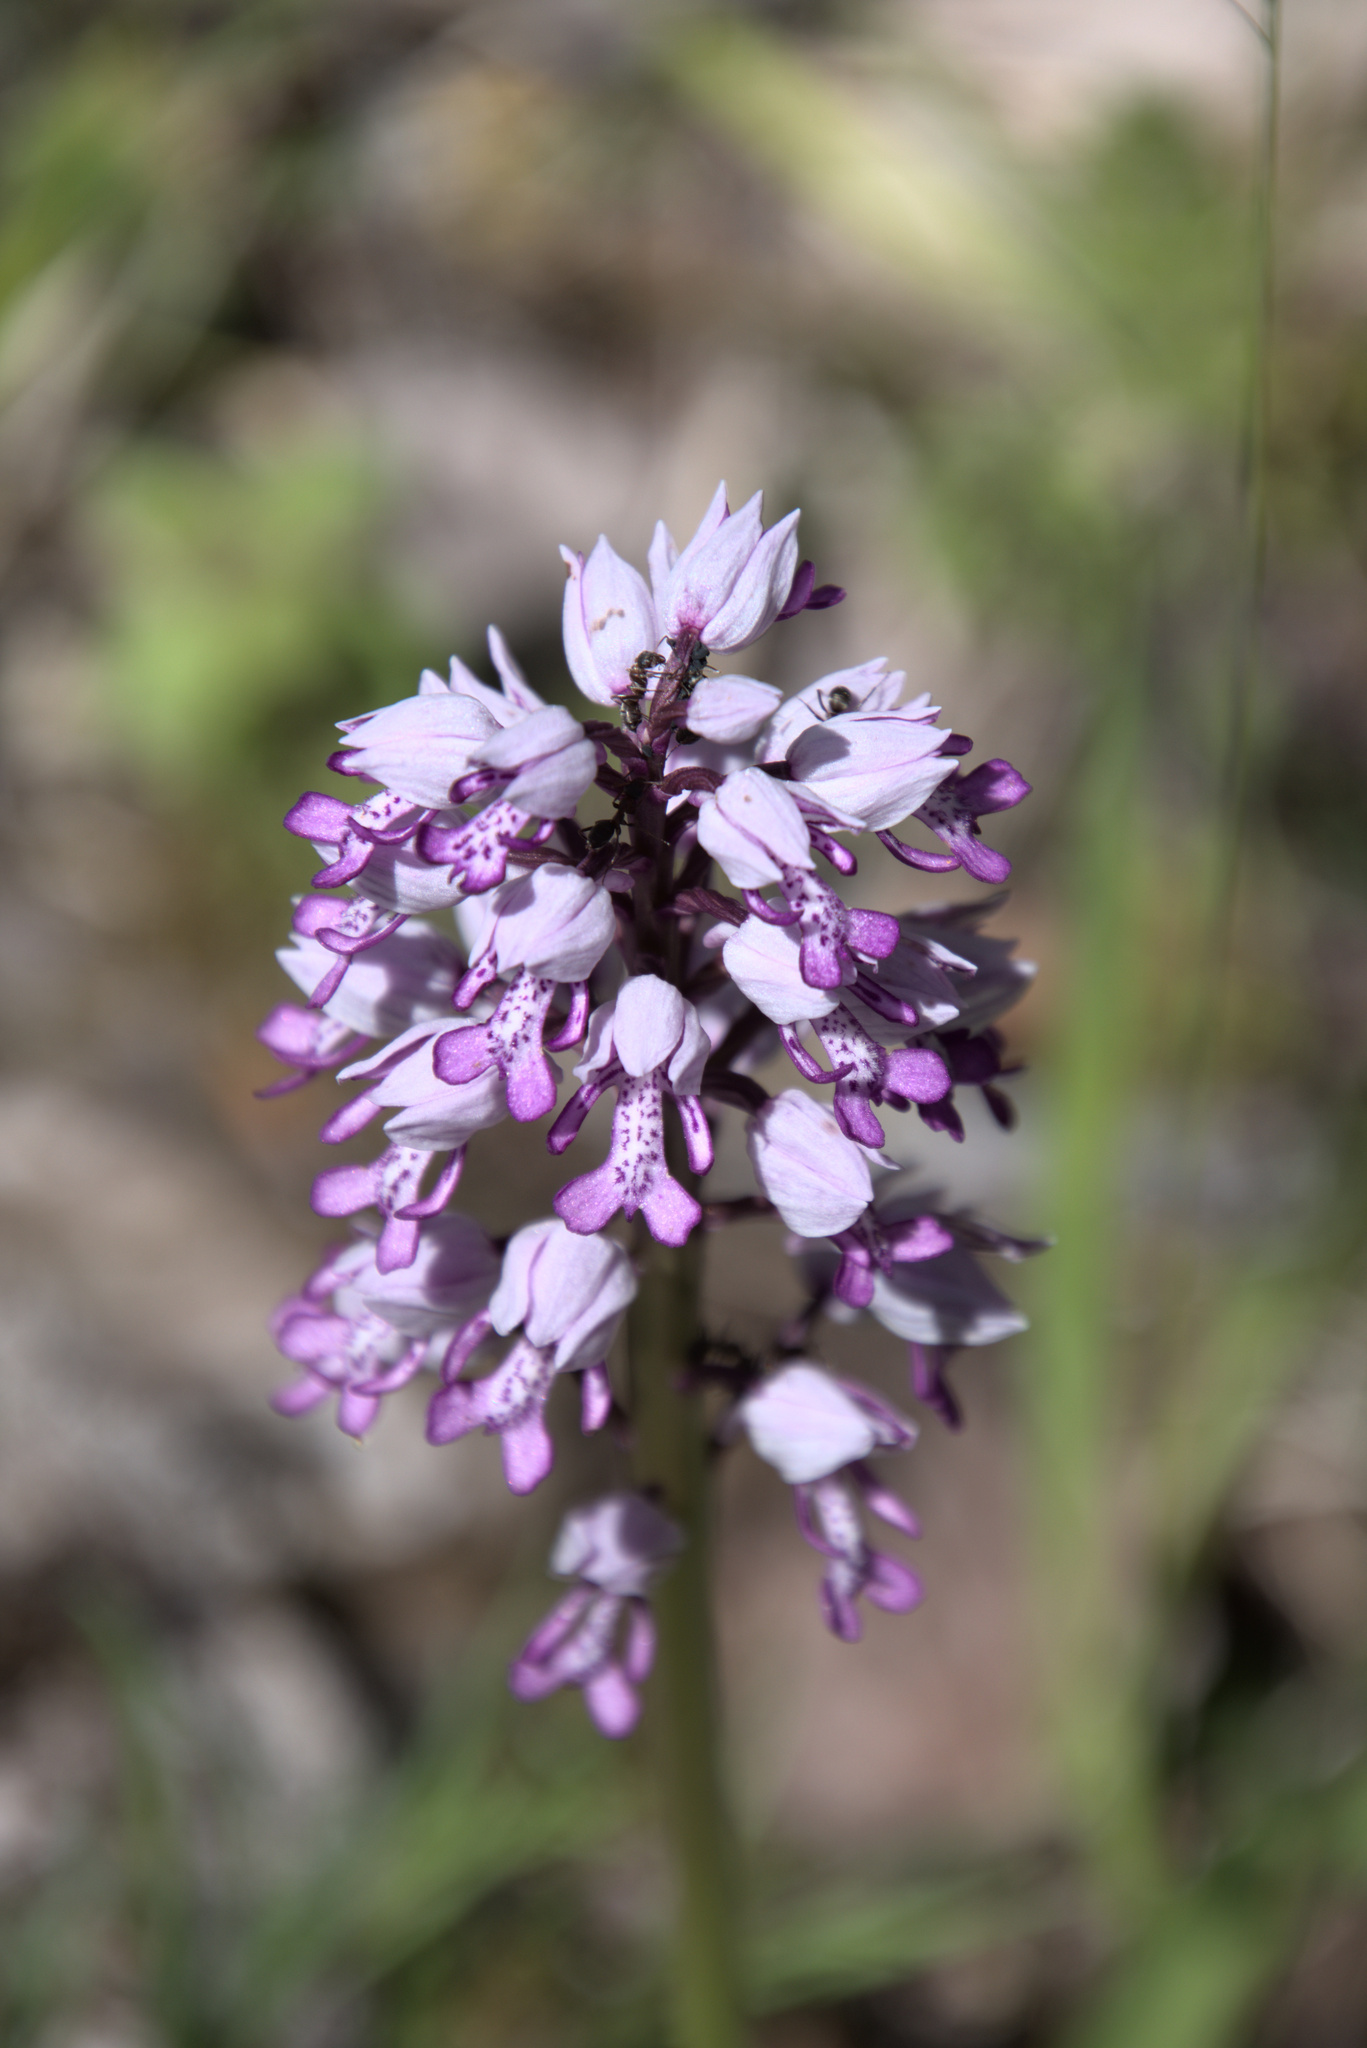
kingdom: Plantae
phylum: Tracheophyta
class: Liliopsida
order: Asparagales
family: Orchidaceae
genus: Orchis
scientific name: Orchis militaris
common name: Military orchid
